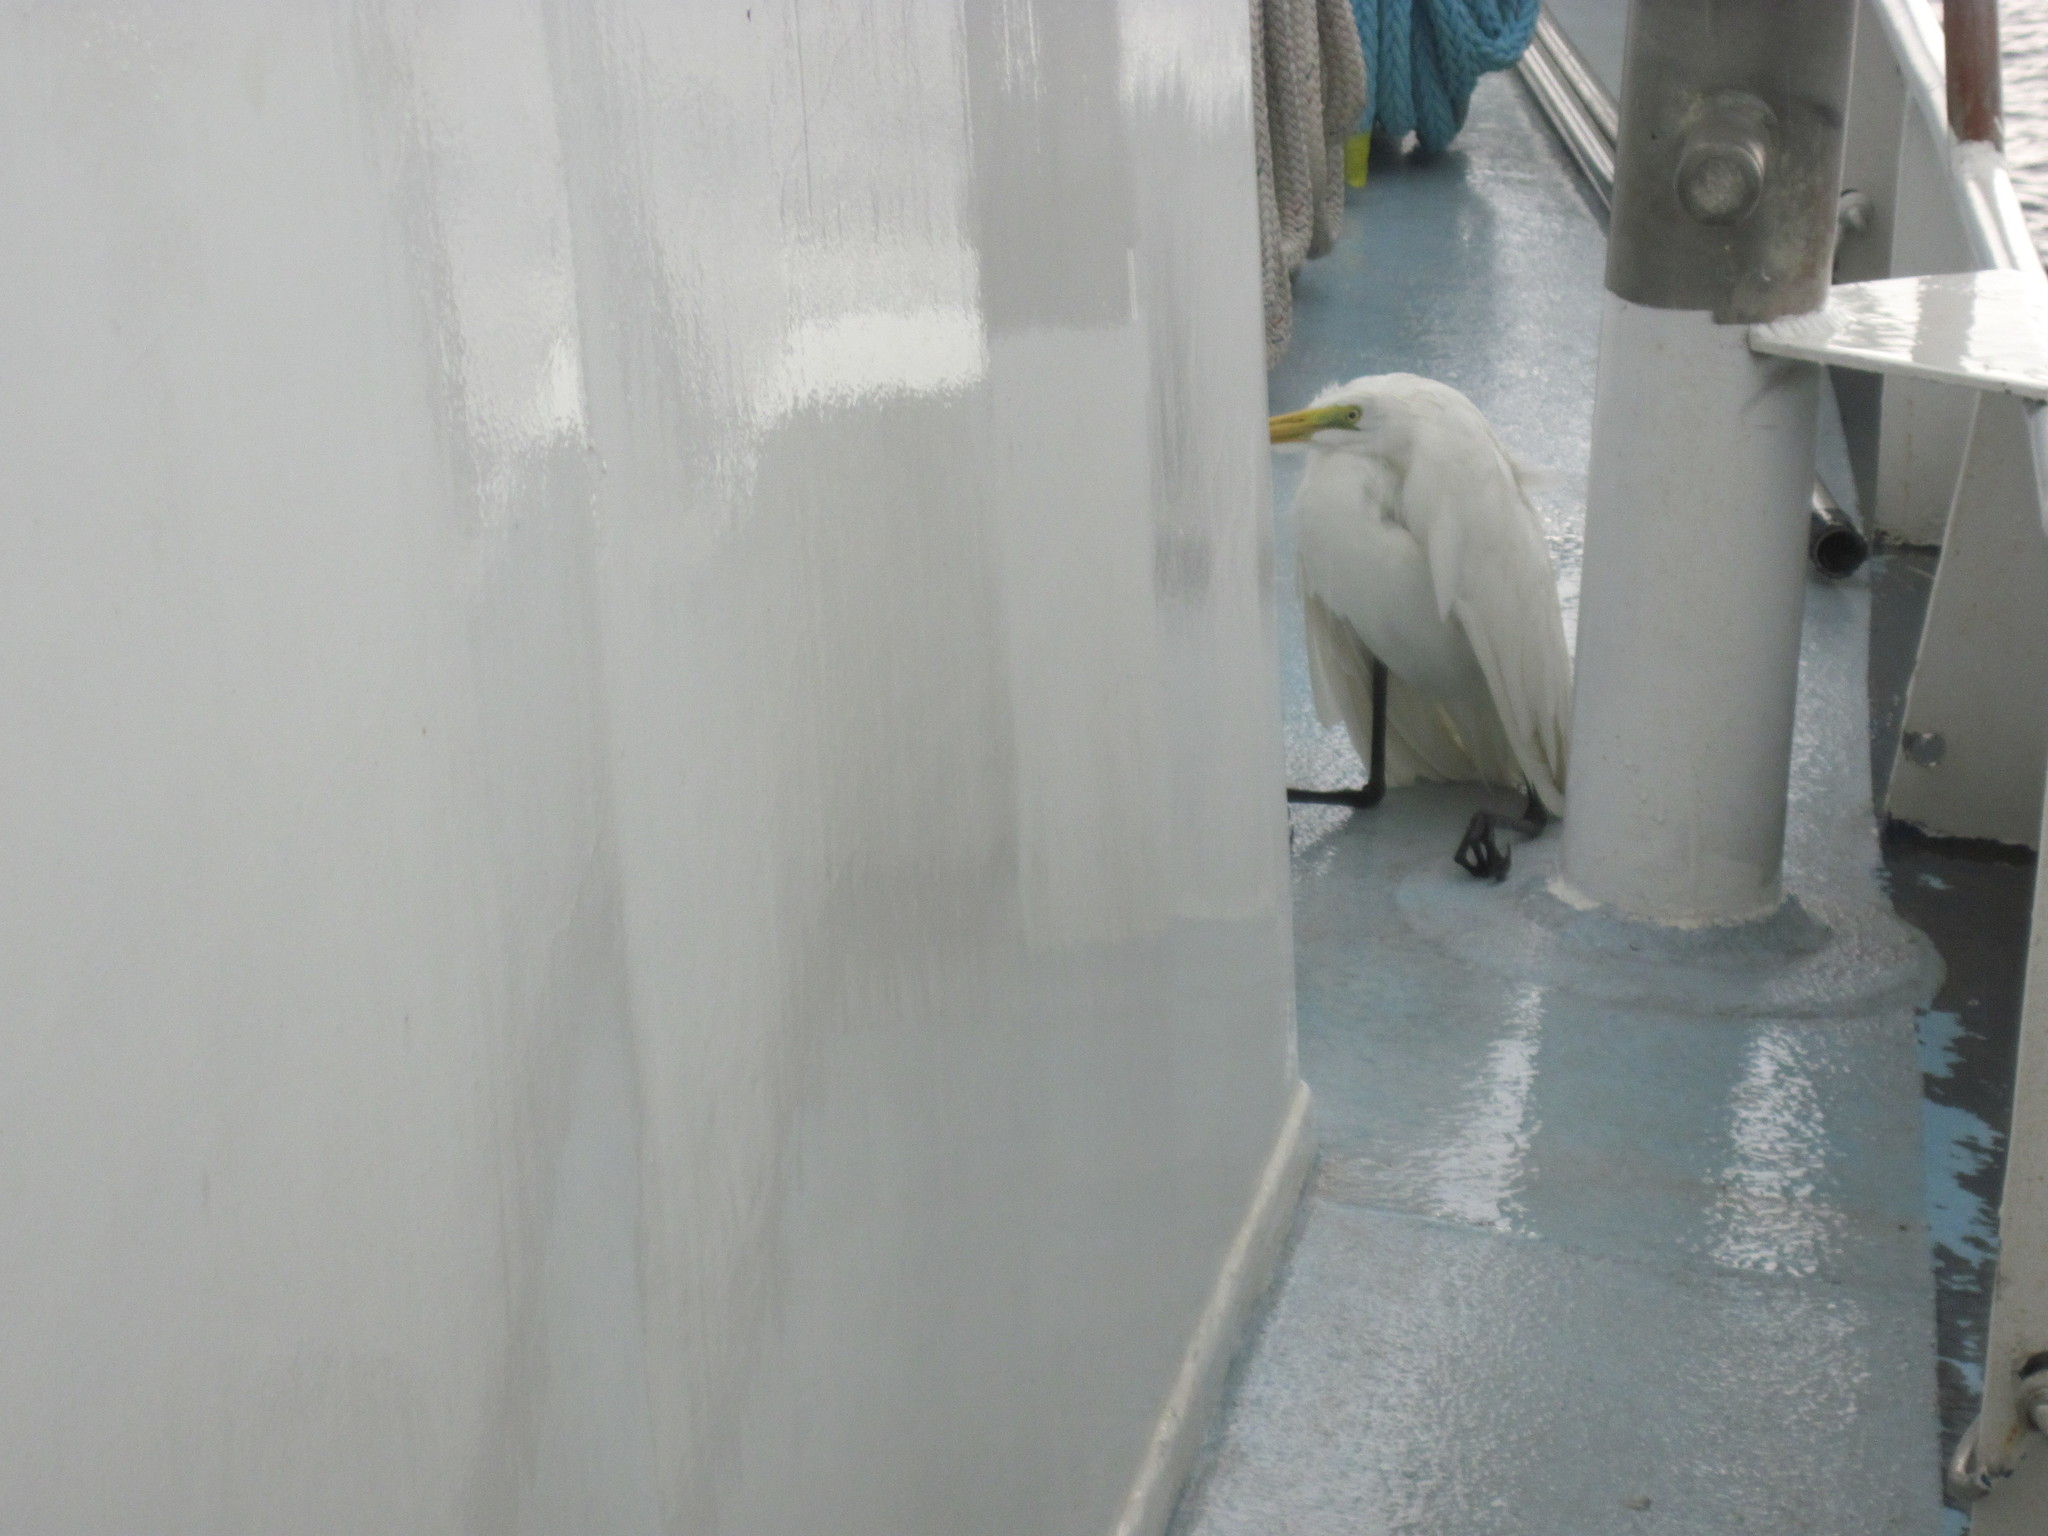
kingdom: Animalia
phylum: Chordata
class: Aves
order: Pelecaniformes
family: Ardeidae
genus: Ardea
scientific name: Ardea alba
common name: Great egret
